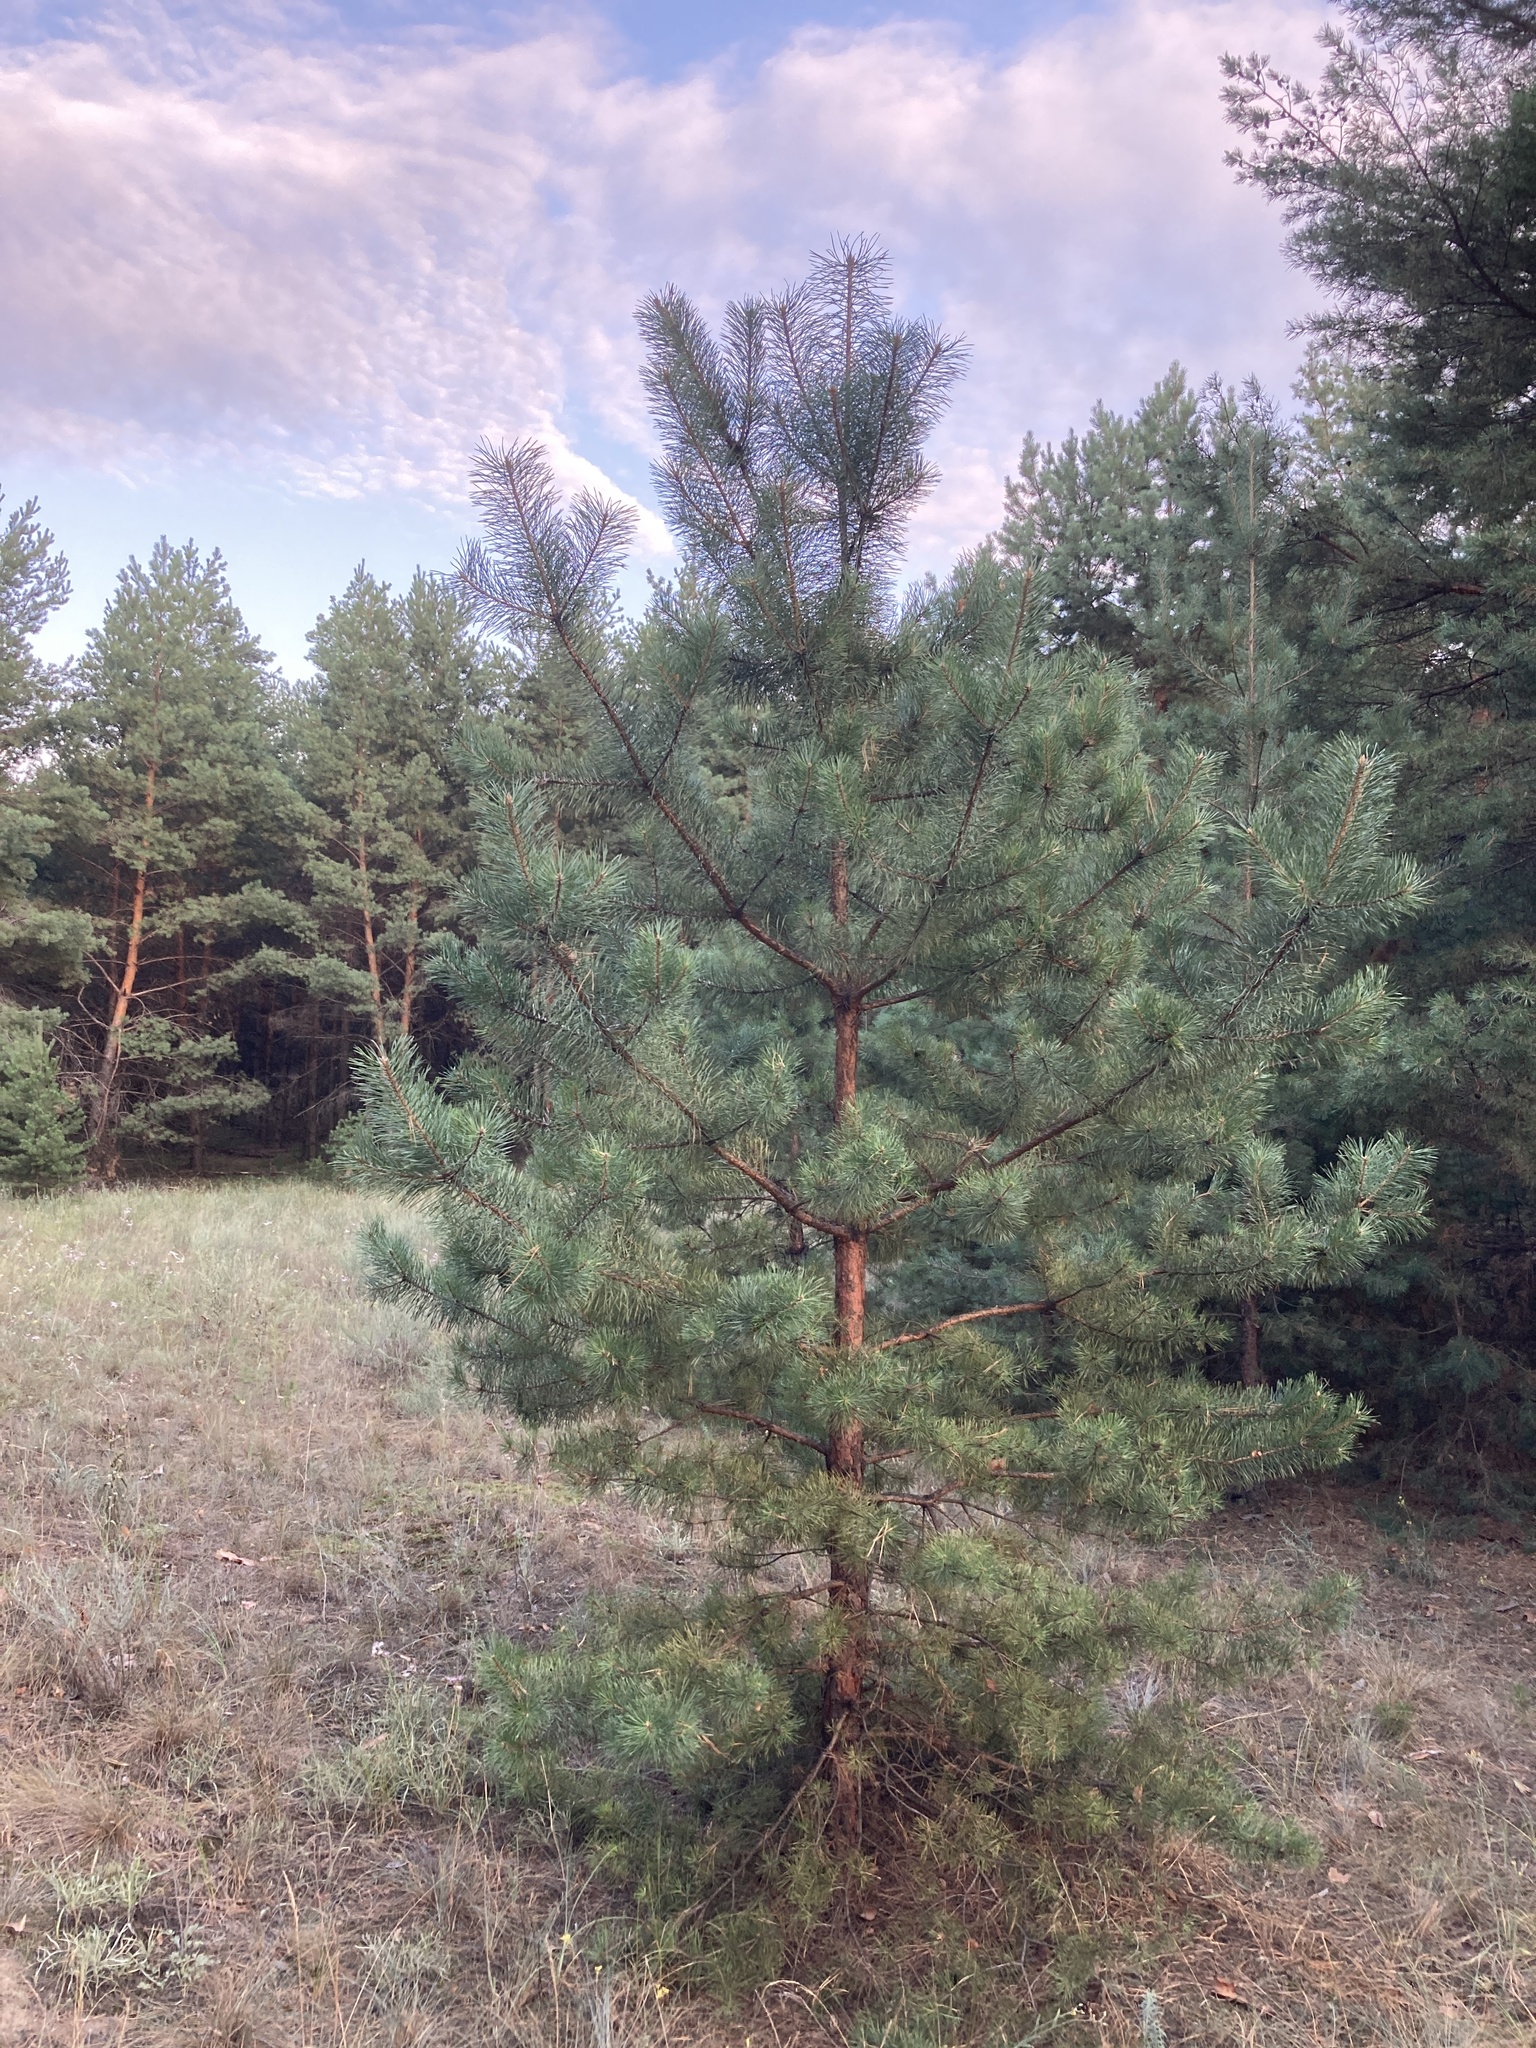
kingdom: Plantae
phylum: Tracheophyta
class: Pinopsida
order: Pinales
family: Pinaceae
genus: Pinus
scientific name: Pinus sylvestris
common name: Scots pine
